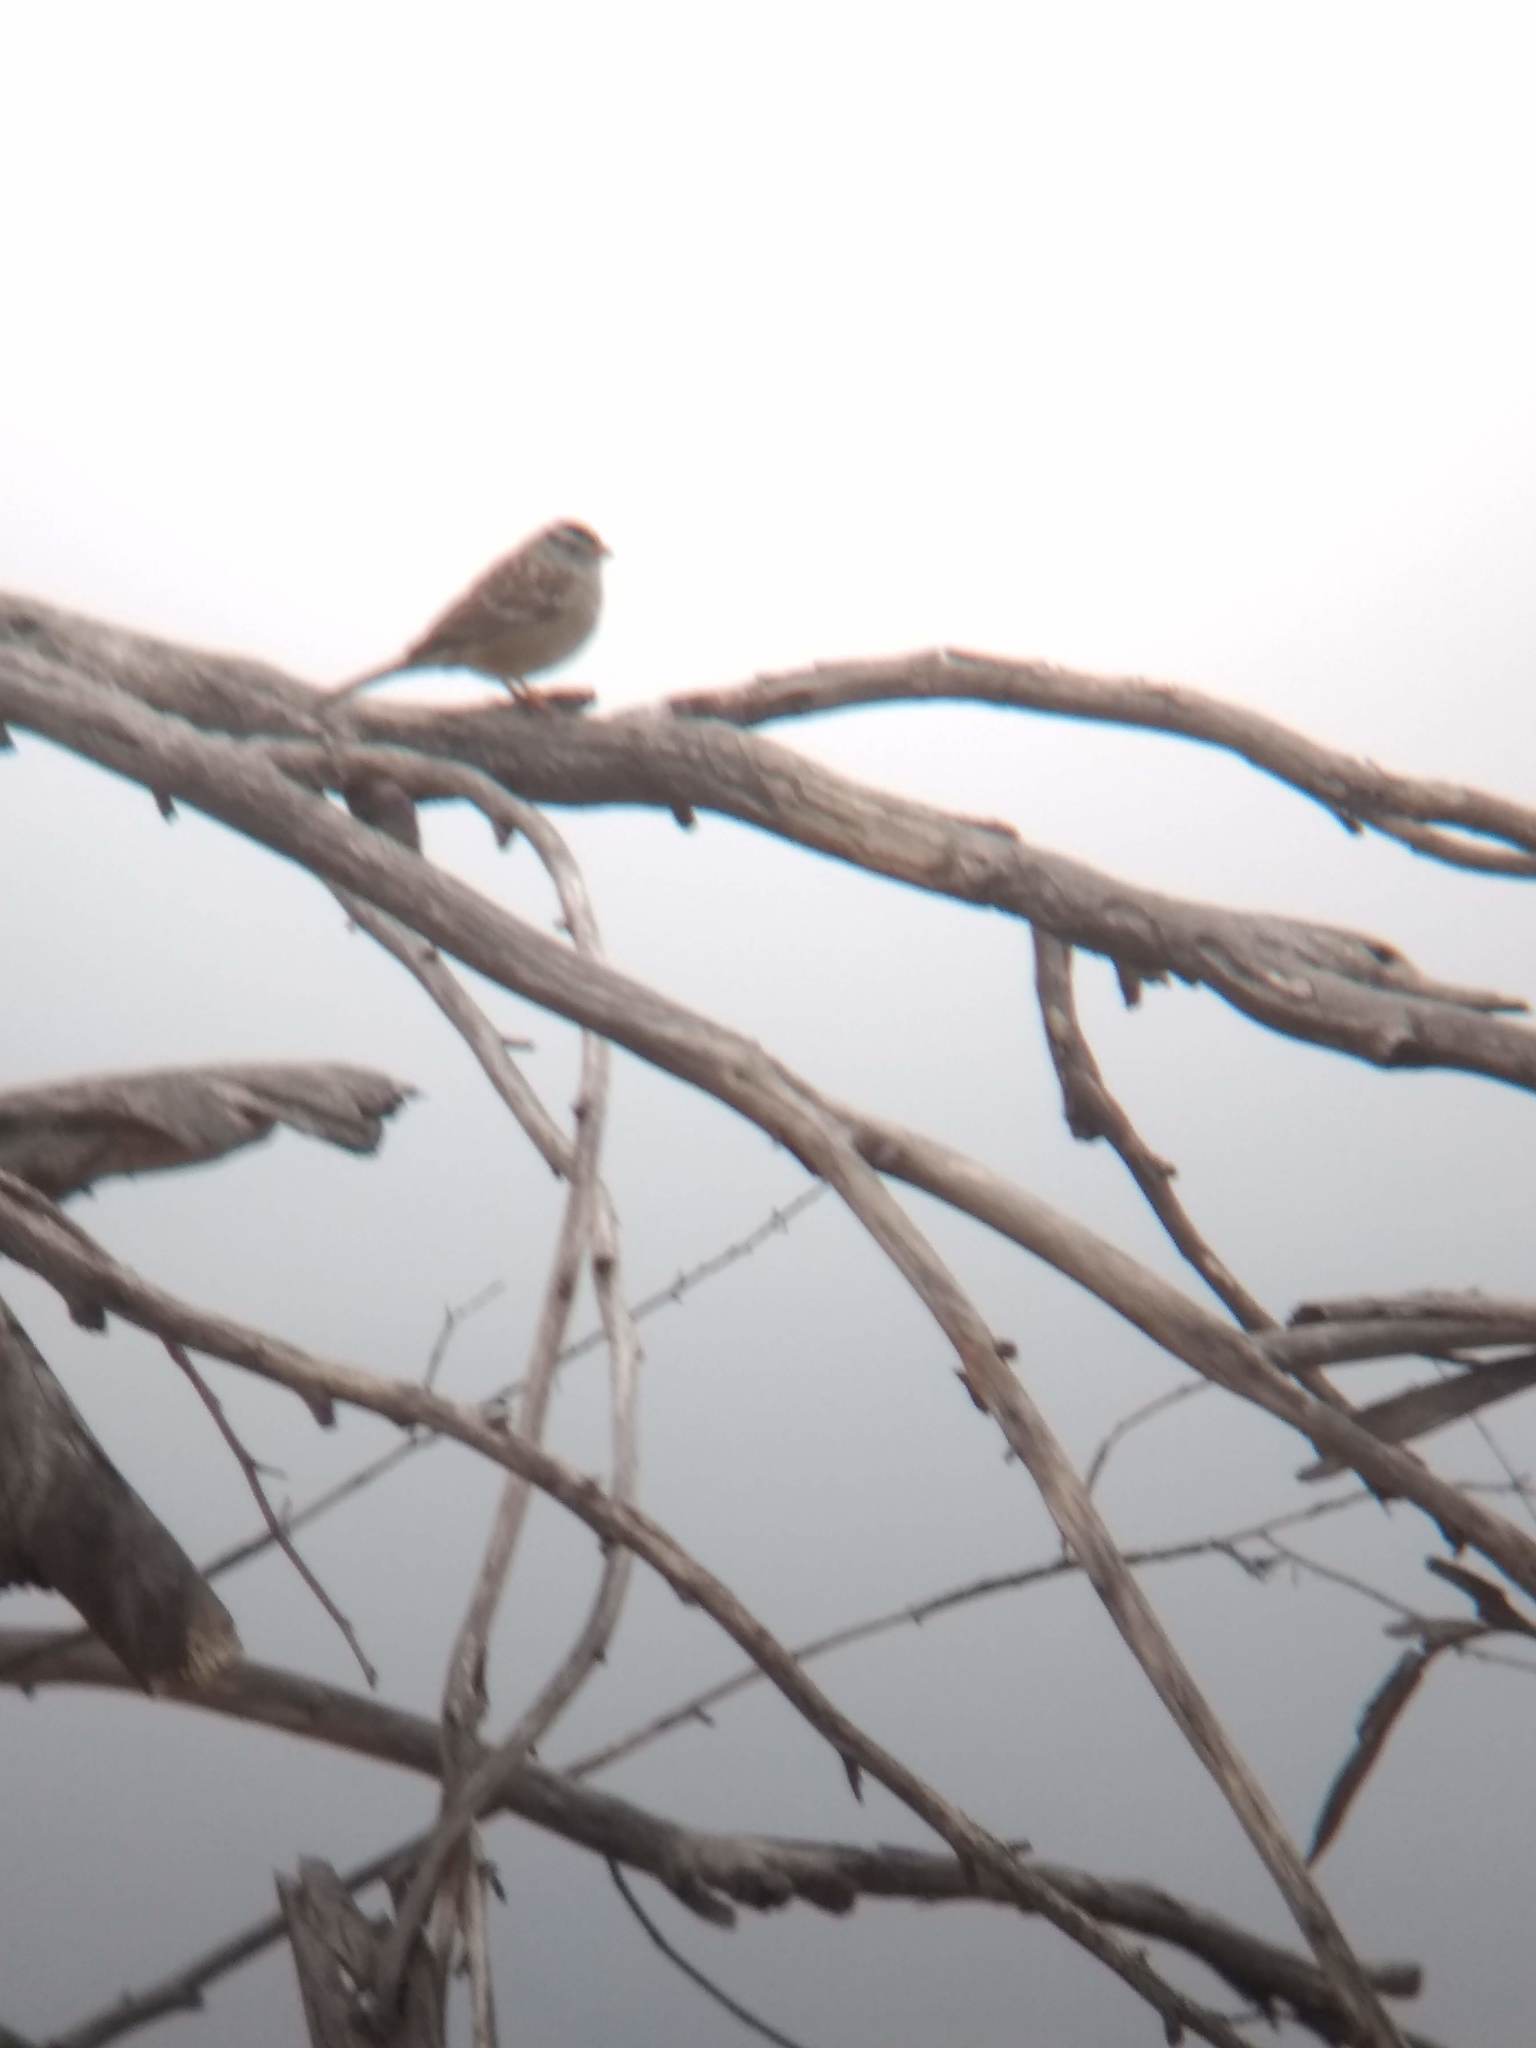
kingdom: Animalia
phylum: Chordata
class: Aves
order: Passeriformes
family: Passerellidae
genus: Zonotrichia
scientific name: Zonotrichia leucophrys
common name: White-crowned sparrow
